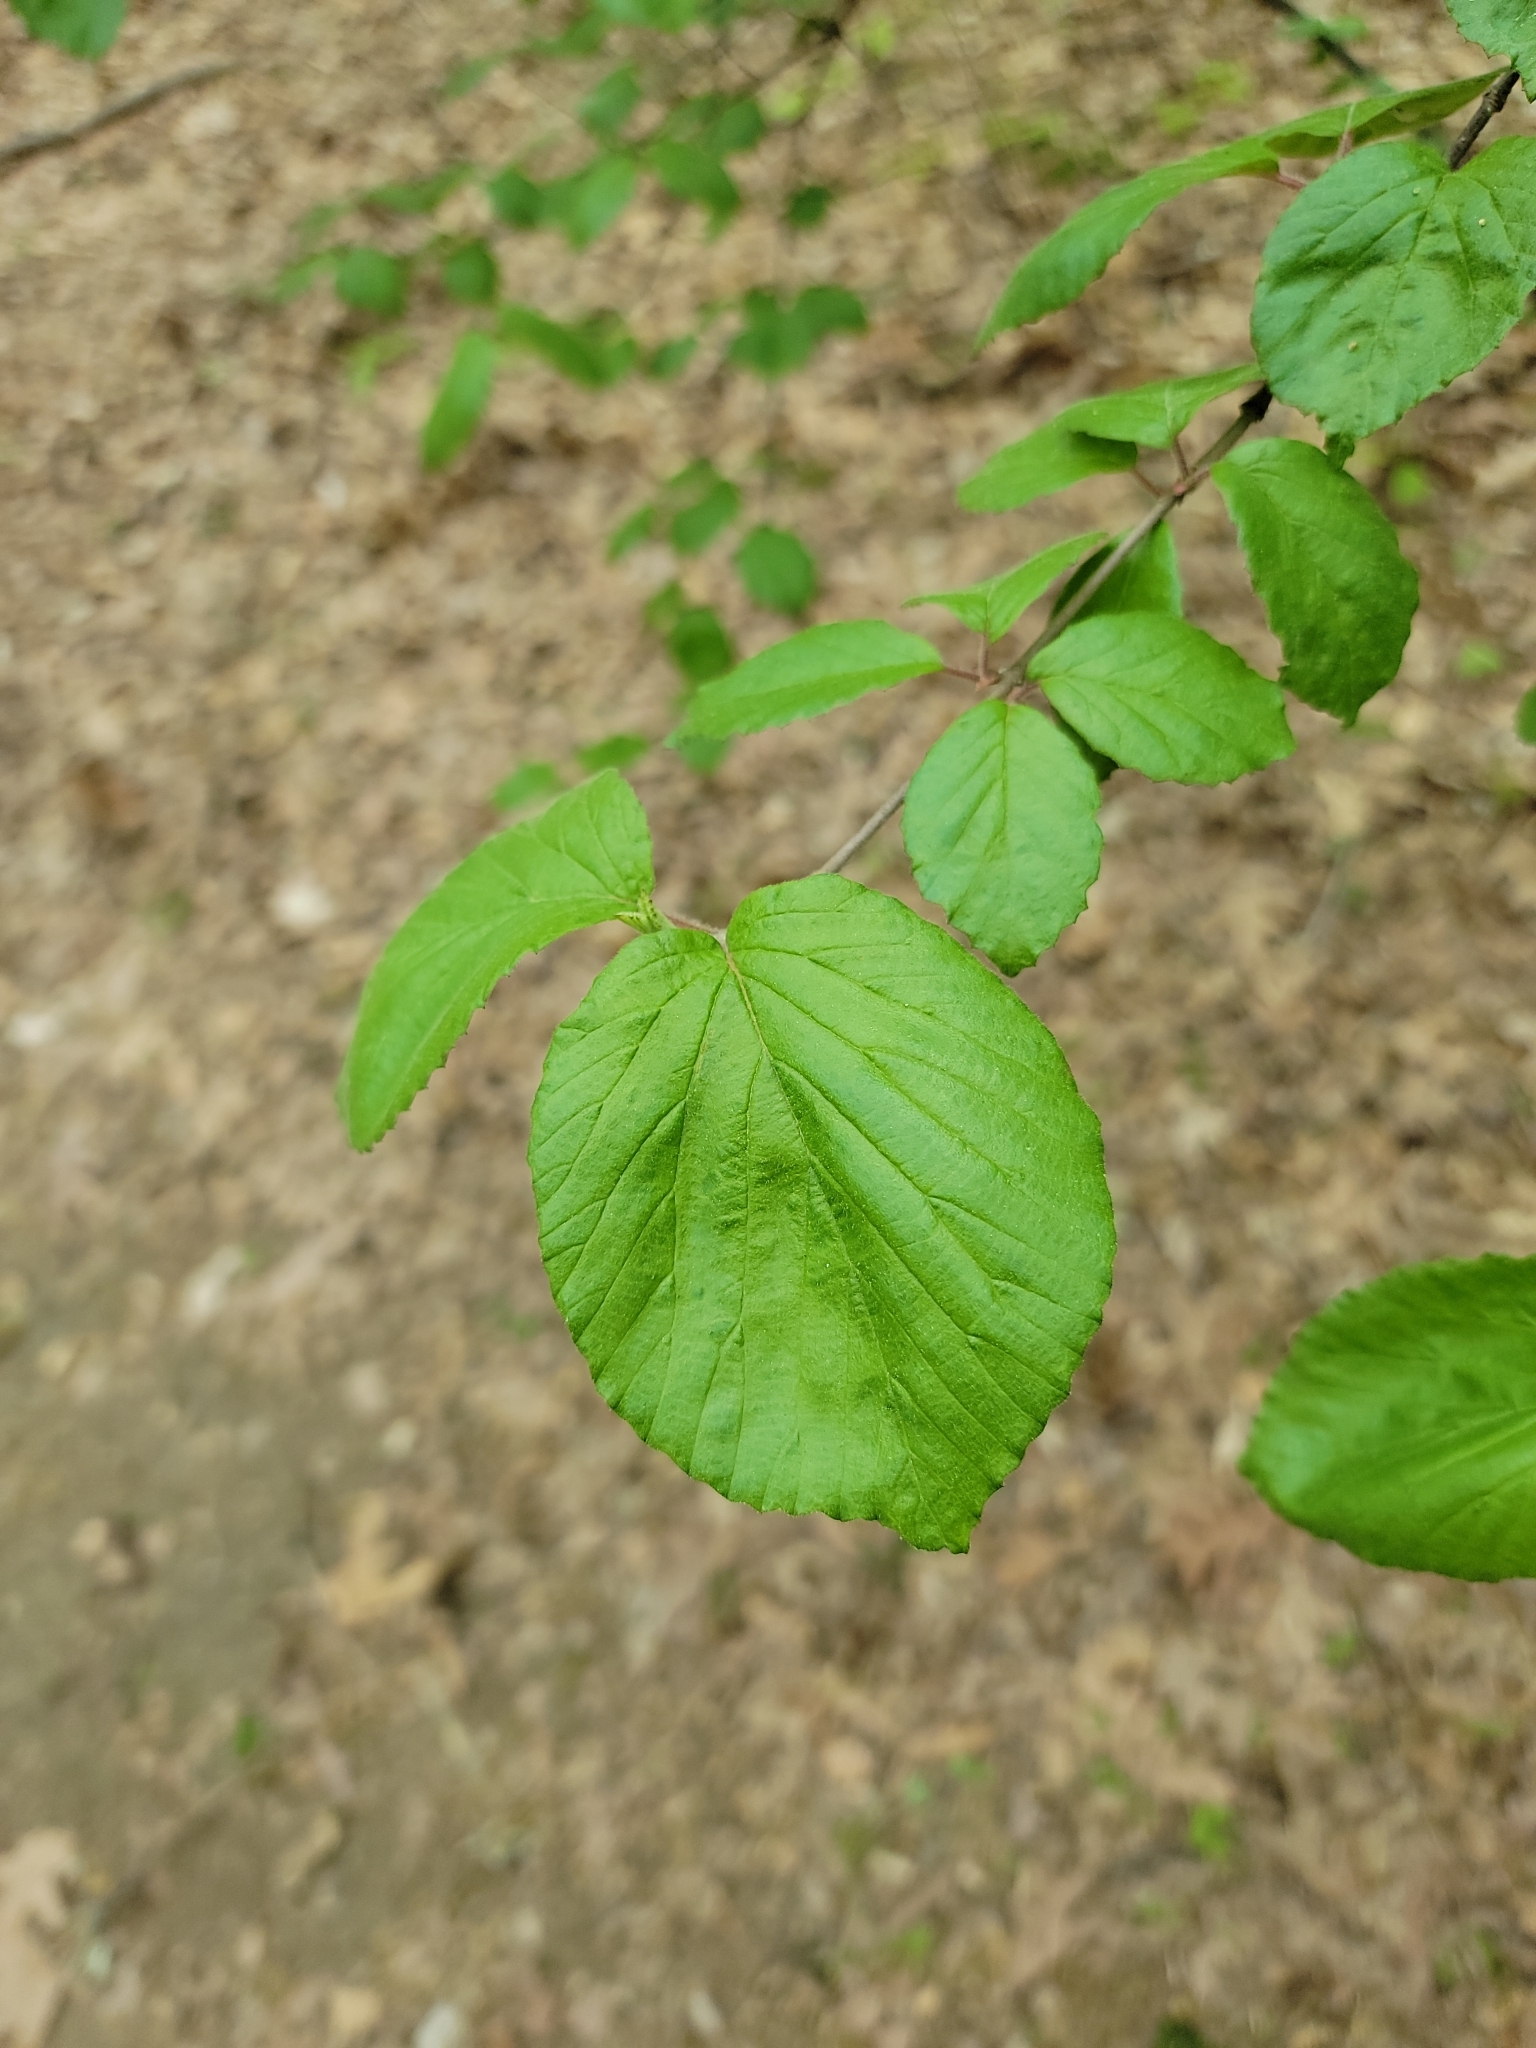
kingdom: Plantae
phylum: Tracheophyta
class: Magnoliopsida
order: Dipsacales
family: Viburnaceae
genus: Viburnum
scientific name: Viburnum dilatatum
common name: Linden arrowwood
